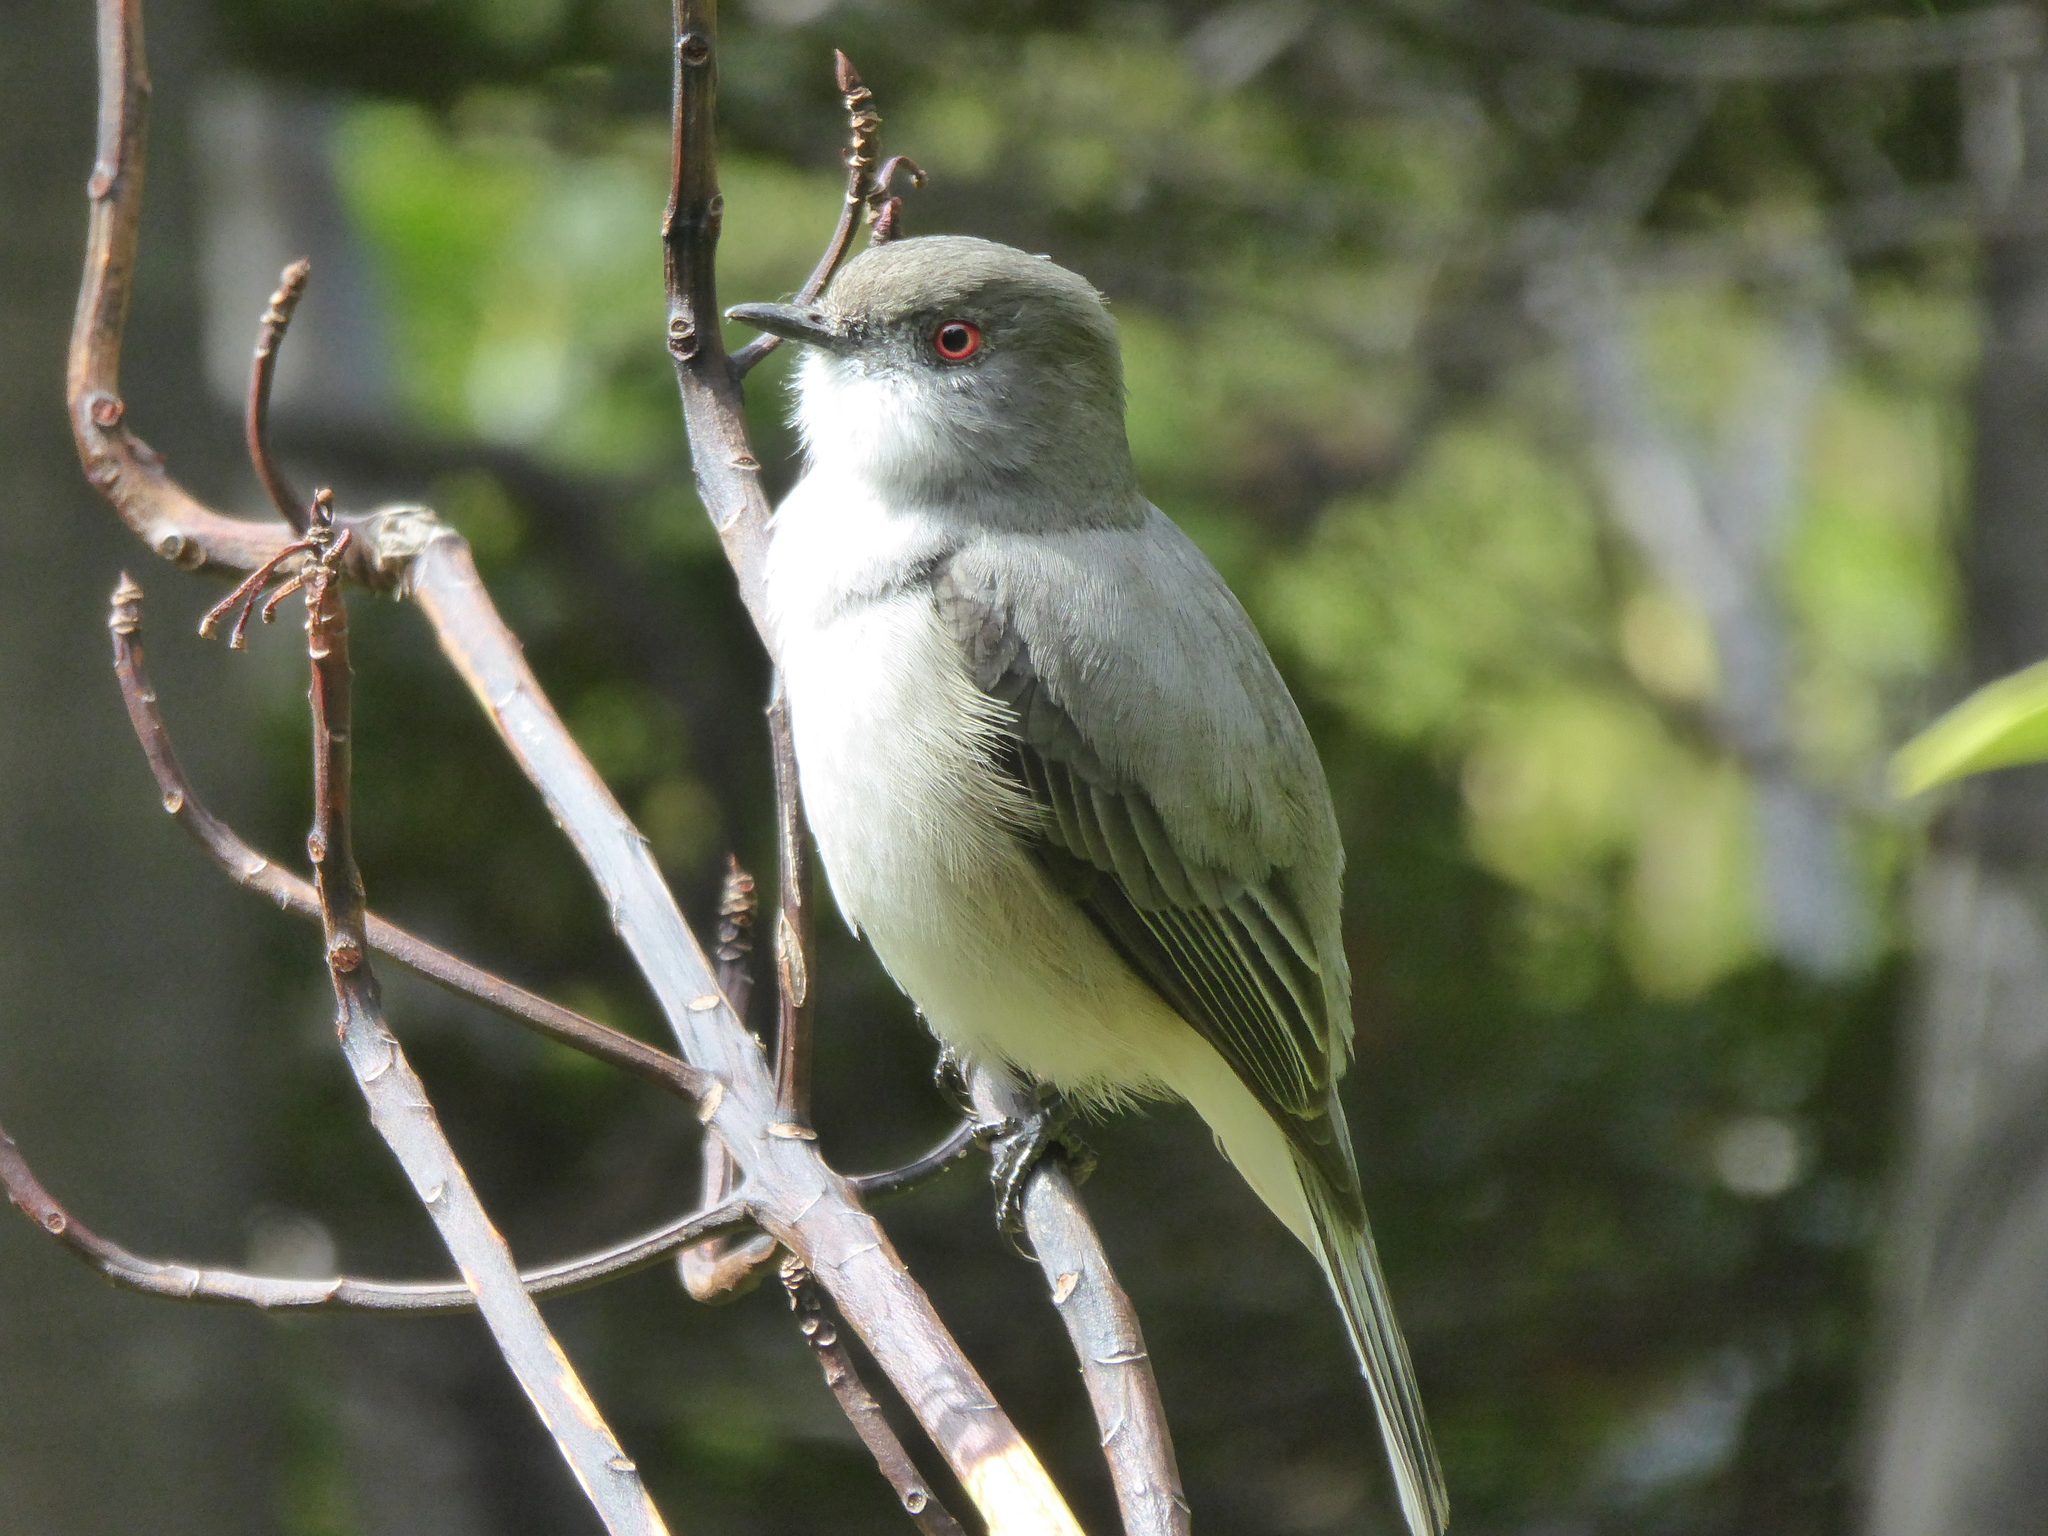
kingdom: Animalia
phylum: Chordata
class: Aves
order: Passeriformes
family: Tyrannidae
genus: Xolmis
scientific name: Xolmis pyrope
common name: Fire-eyed diucon
